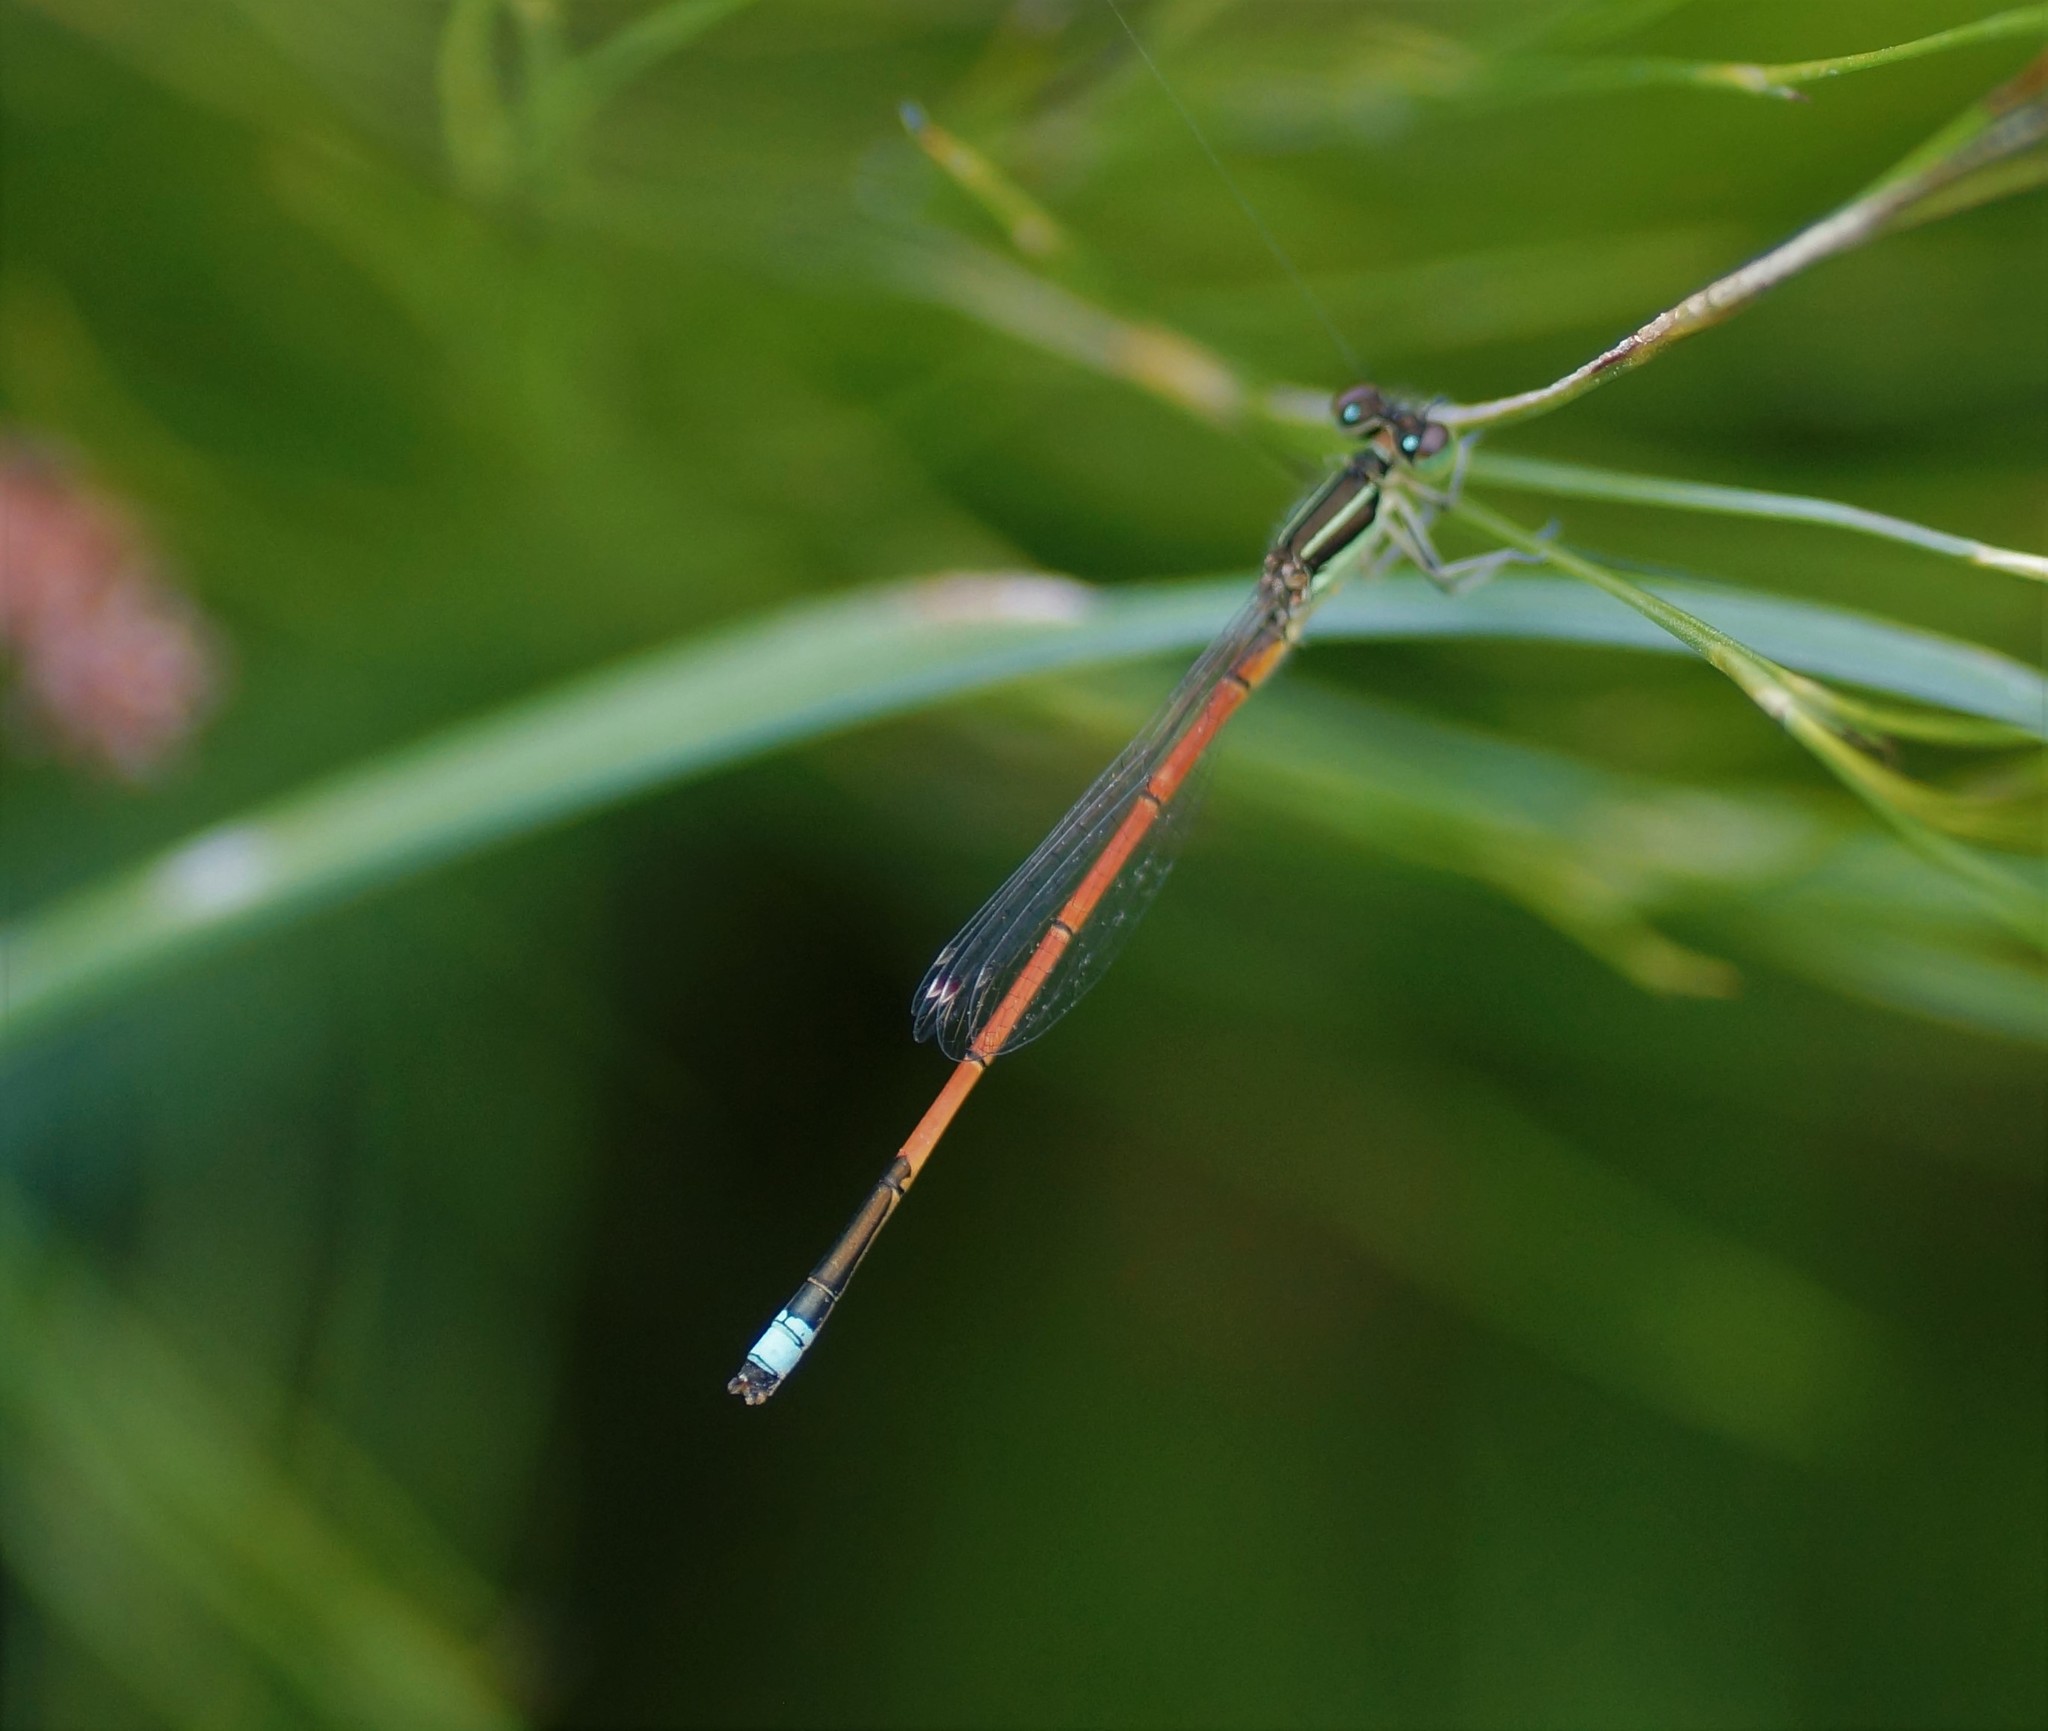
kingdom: Animalia
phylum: Arthropoda
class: Insecta
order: Odonata
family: Coenagrionidae
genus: Ischnura
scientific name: Ischnura aurora
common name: Gossamer damselfly
